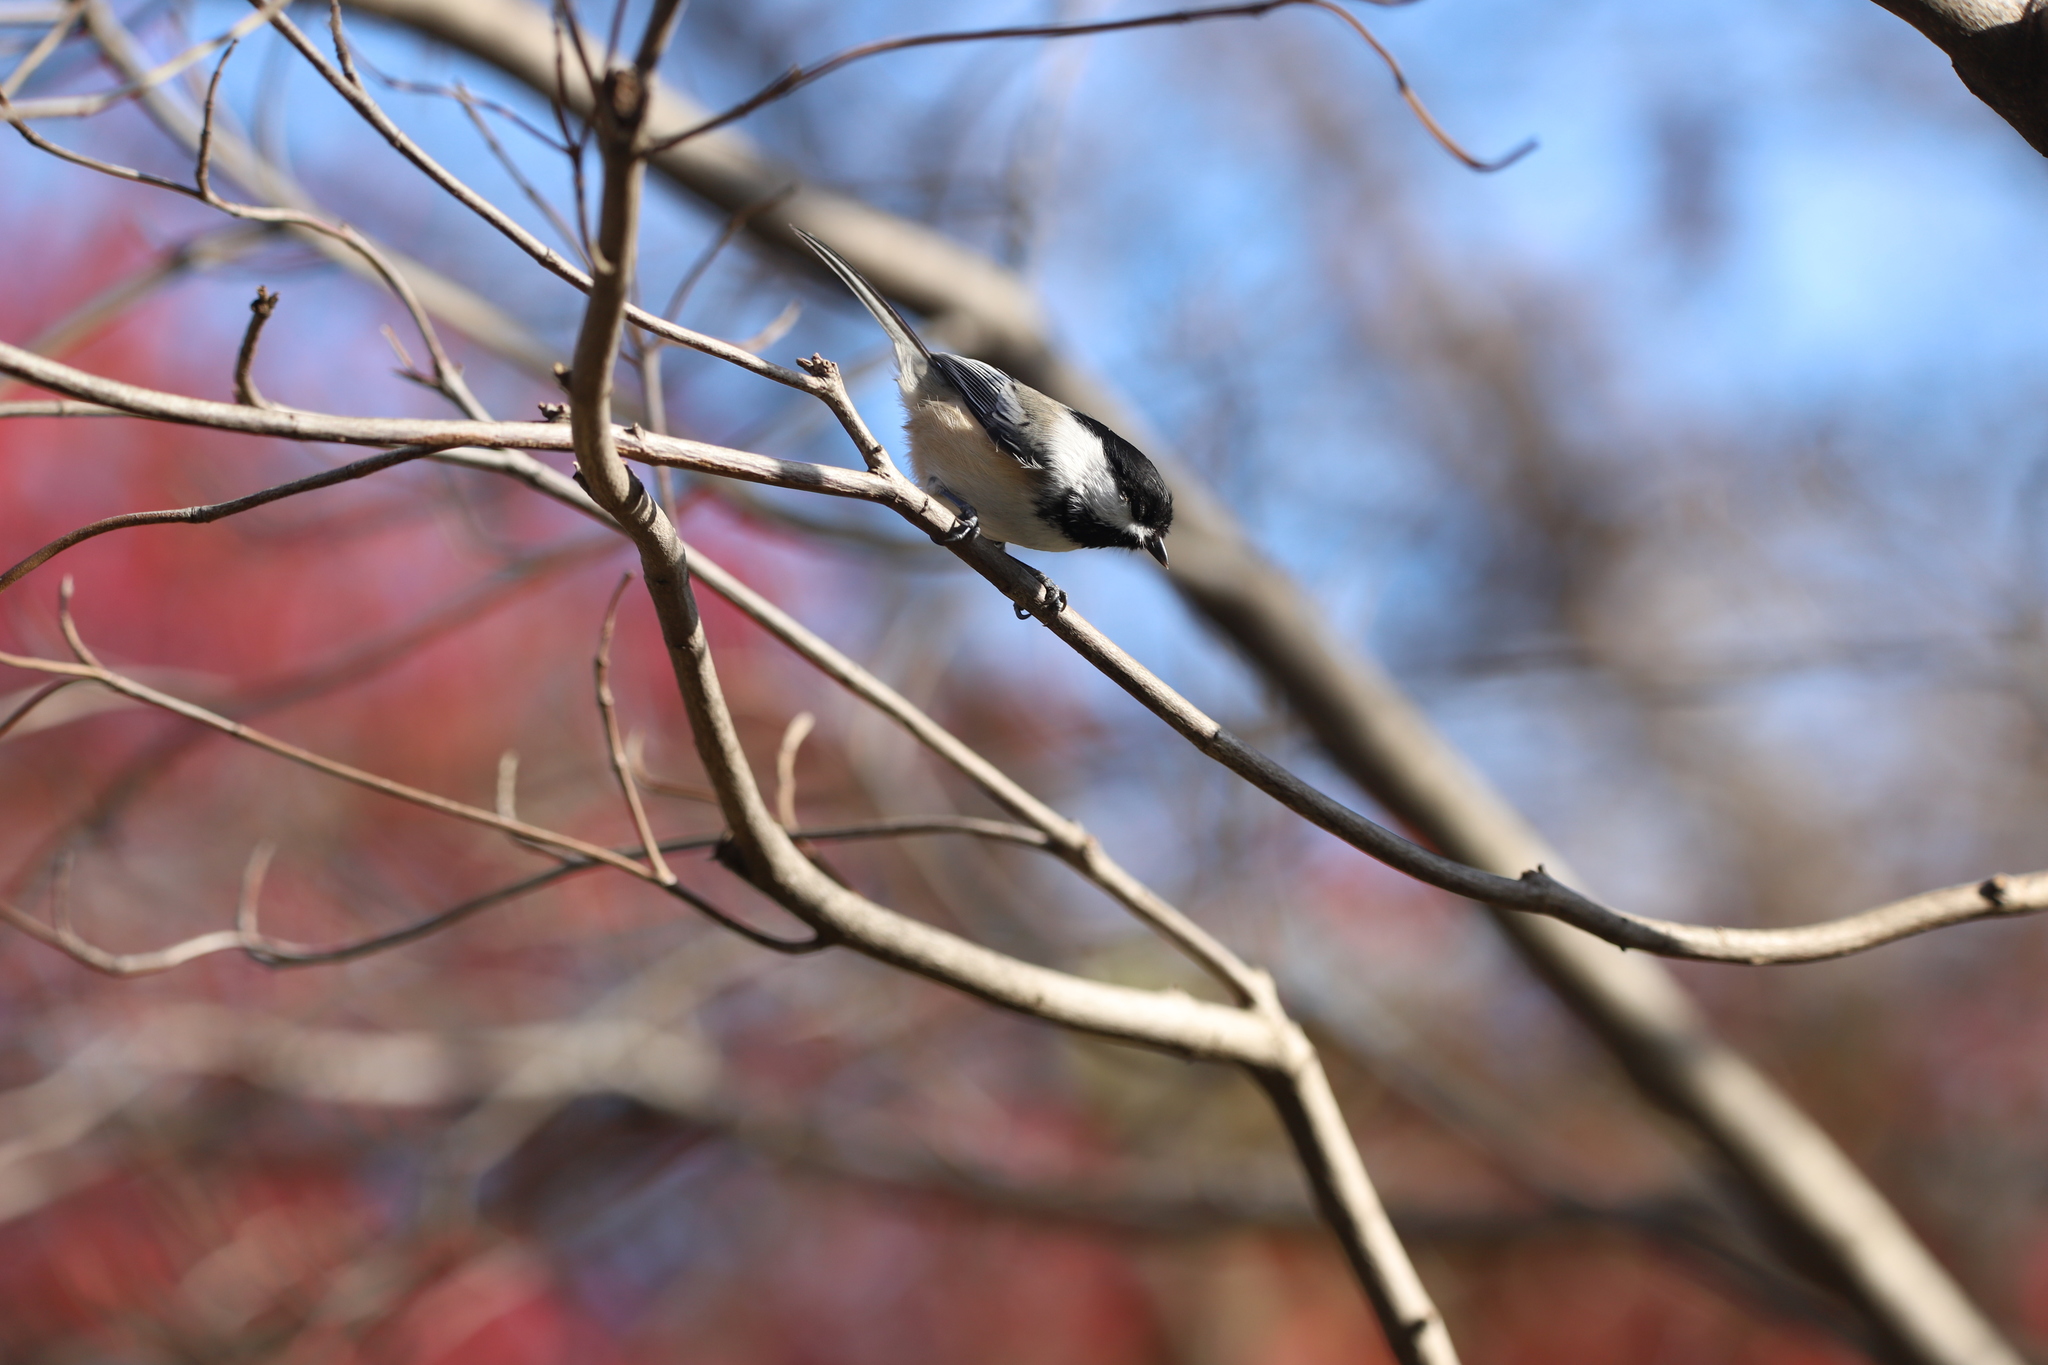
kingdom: Animalia
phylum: Chordata
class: Aves
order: Passeriformes
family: Paridae
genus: Poecile
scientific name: Poecile atricapillus
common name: Black-capped chickadee
